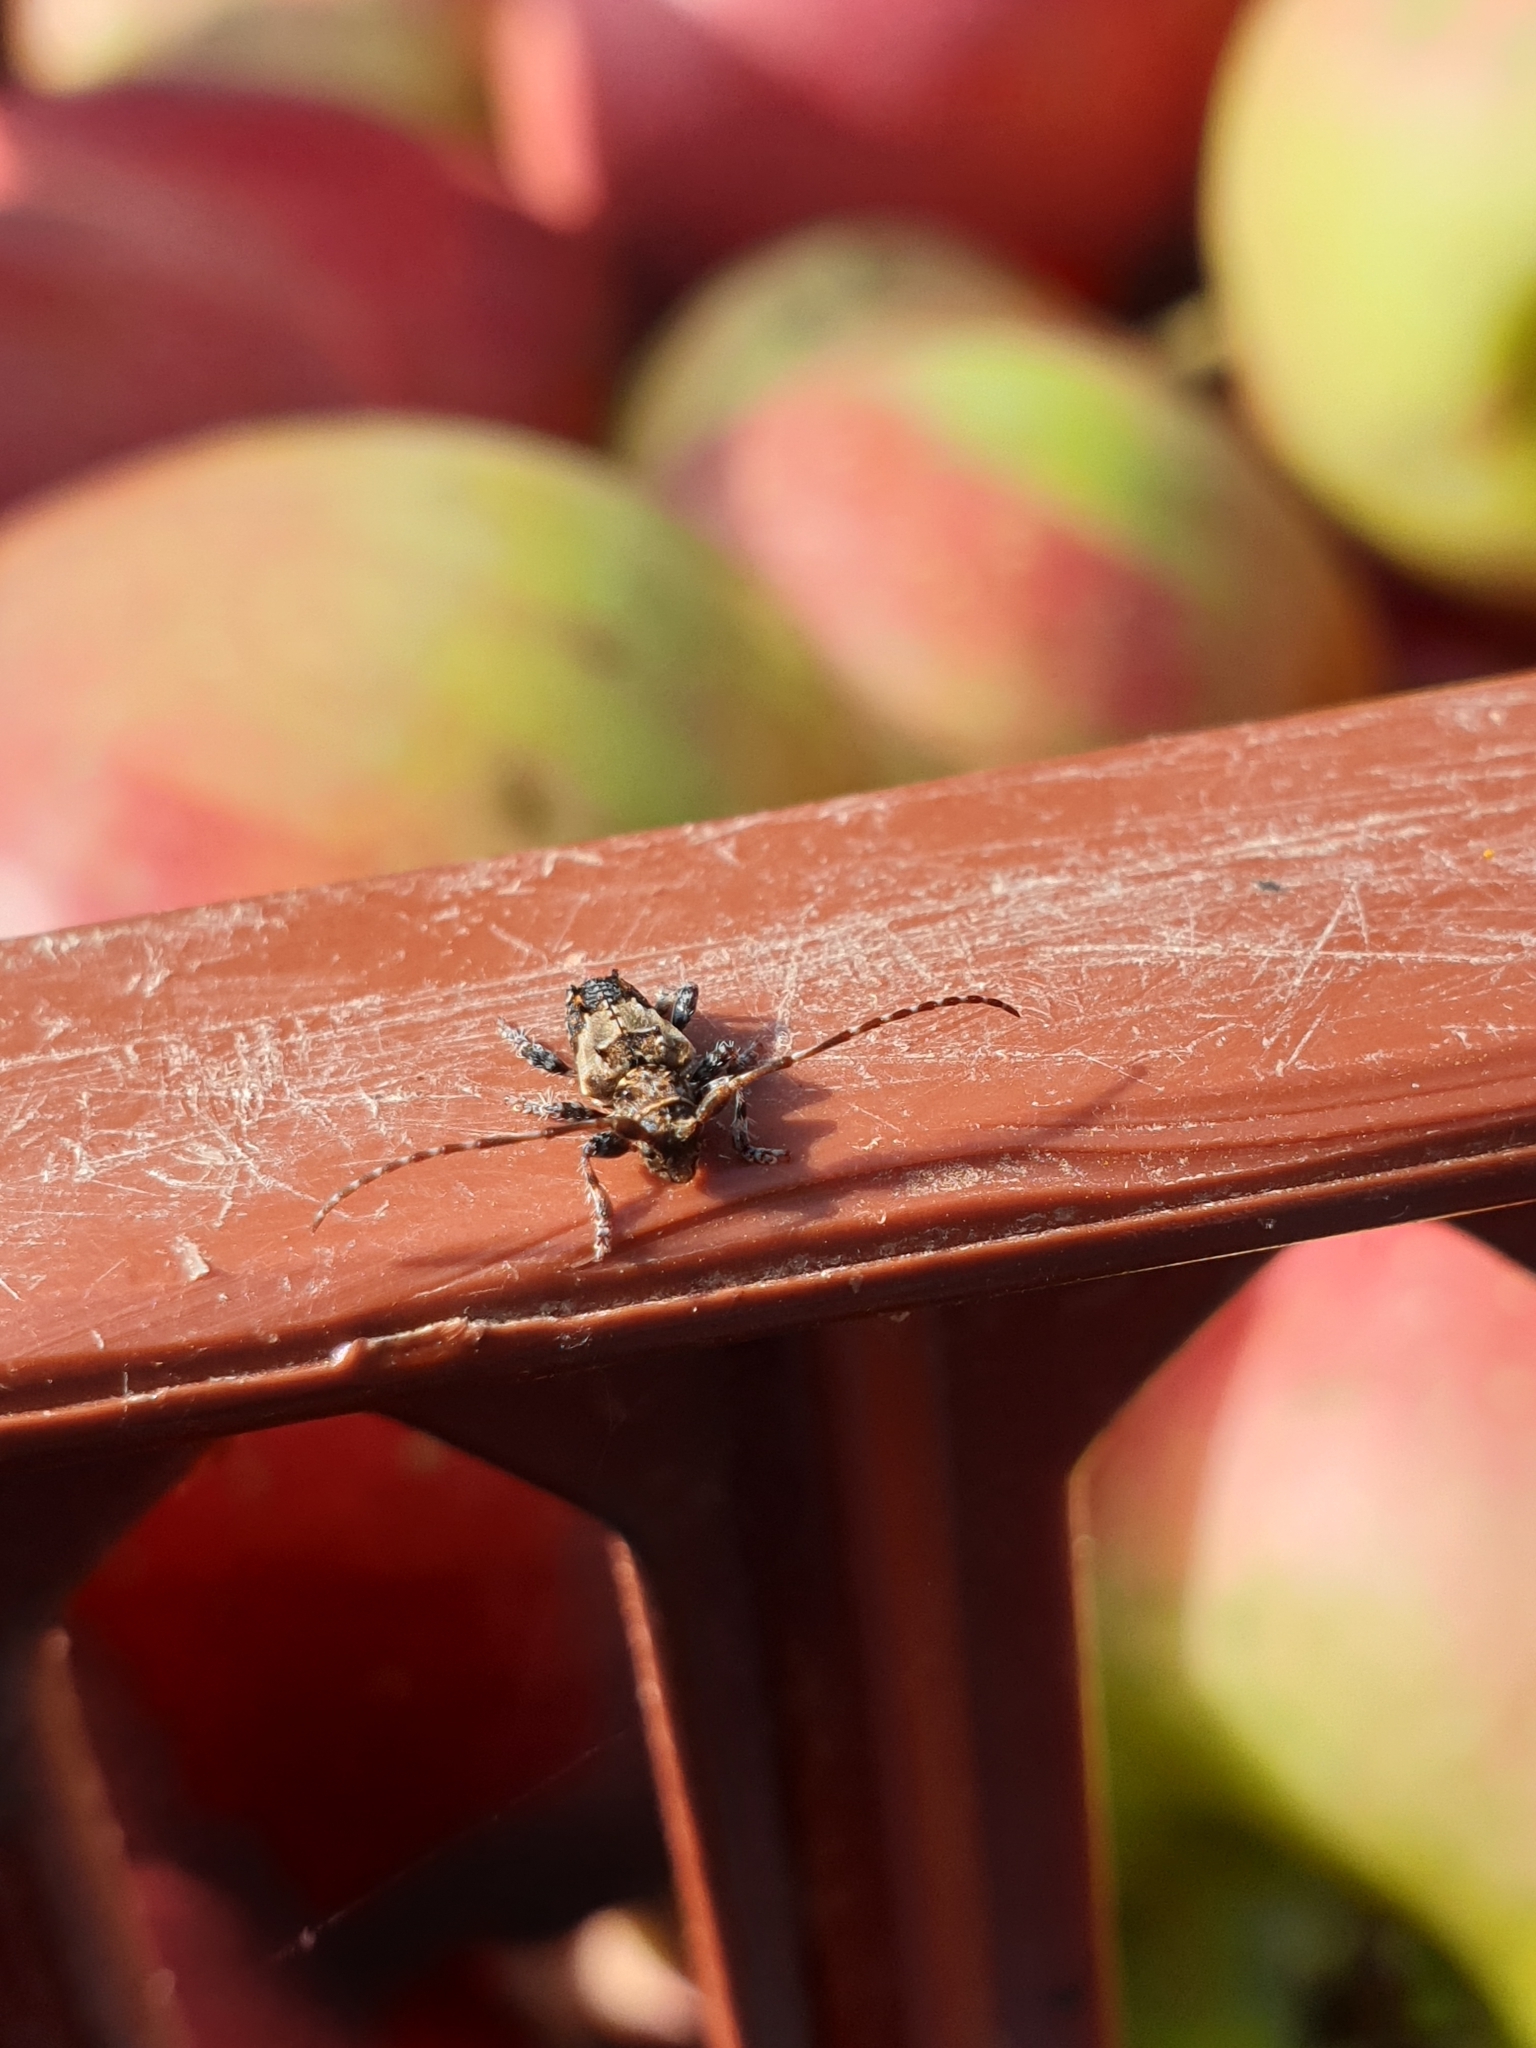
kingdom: Animalia
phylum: Arthropoda
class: Insecta
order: Coleoptera
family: Cerambycidae
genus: Pogonocherus
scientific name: Pogonocherus hispidus
